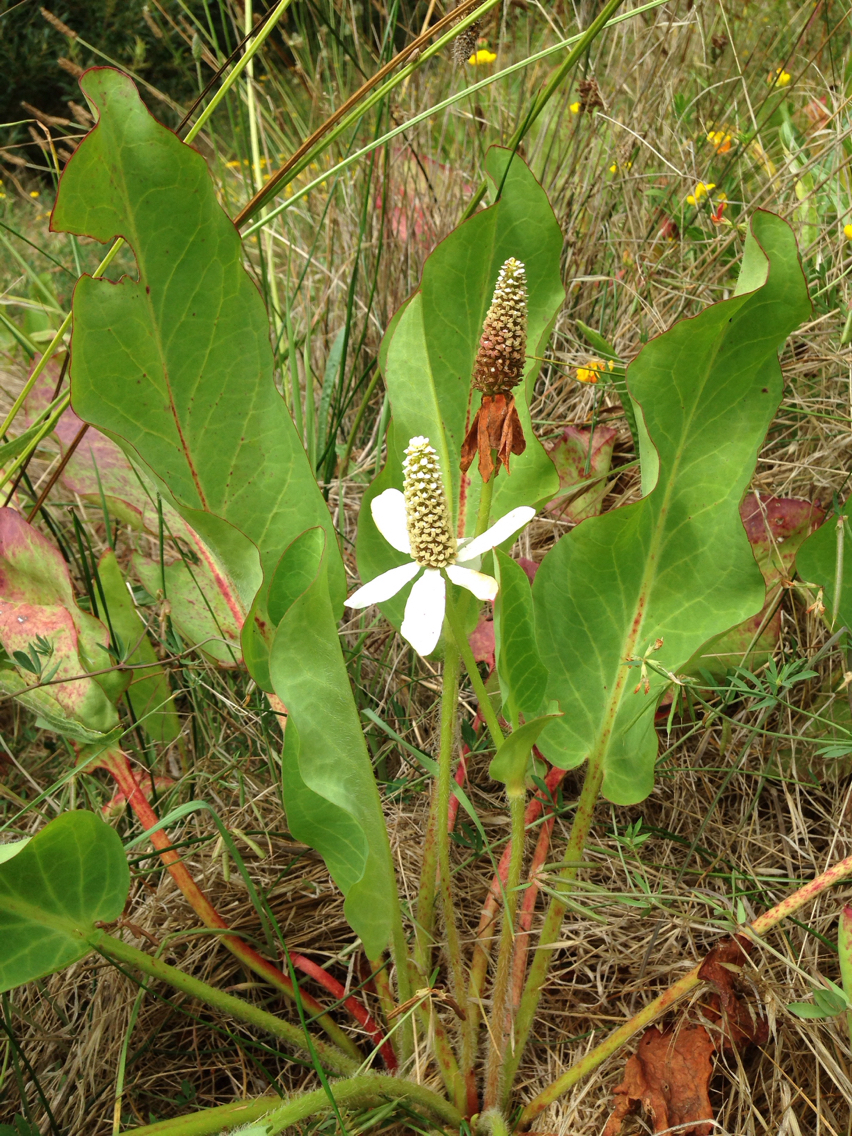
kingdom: Plantae
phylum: Tracheophyta
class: Magnoliopsida
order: Piperales
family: Saururaceae
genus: Anemopsis
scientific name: Anemopsis californica
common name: Apache-beads
